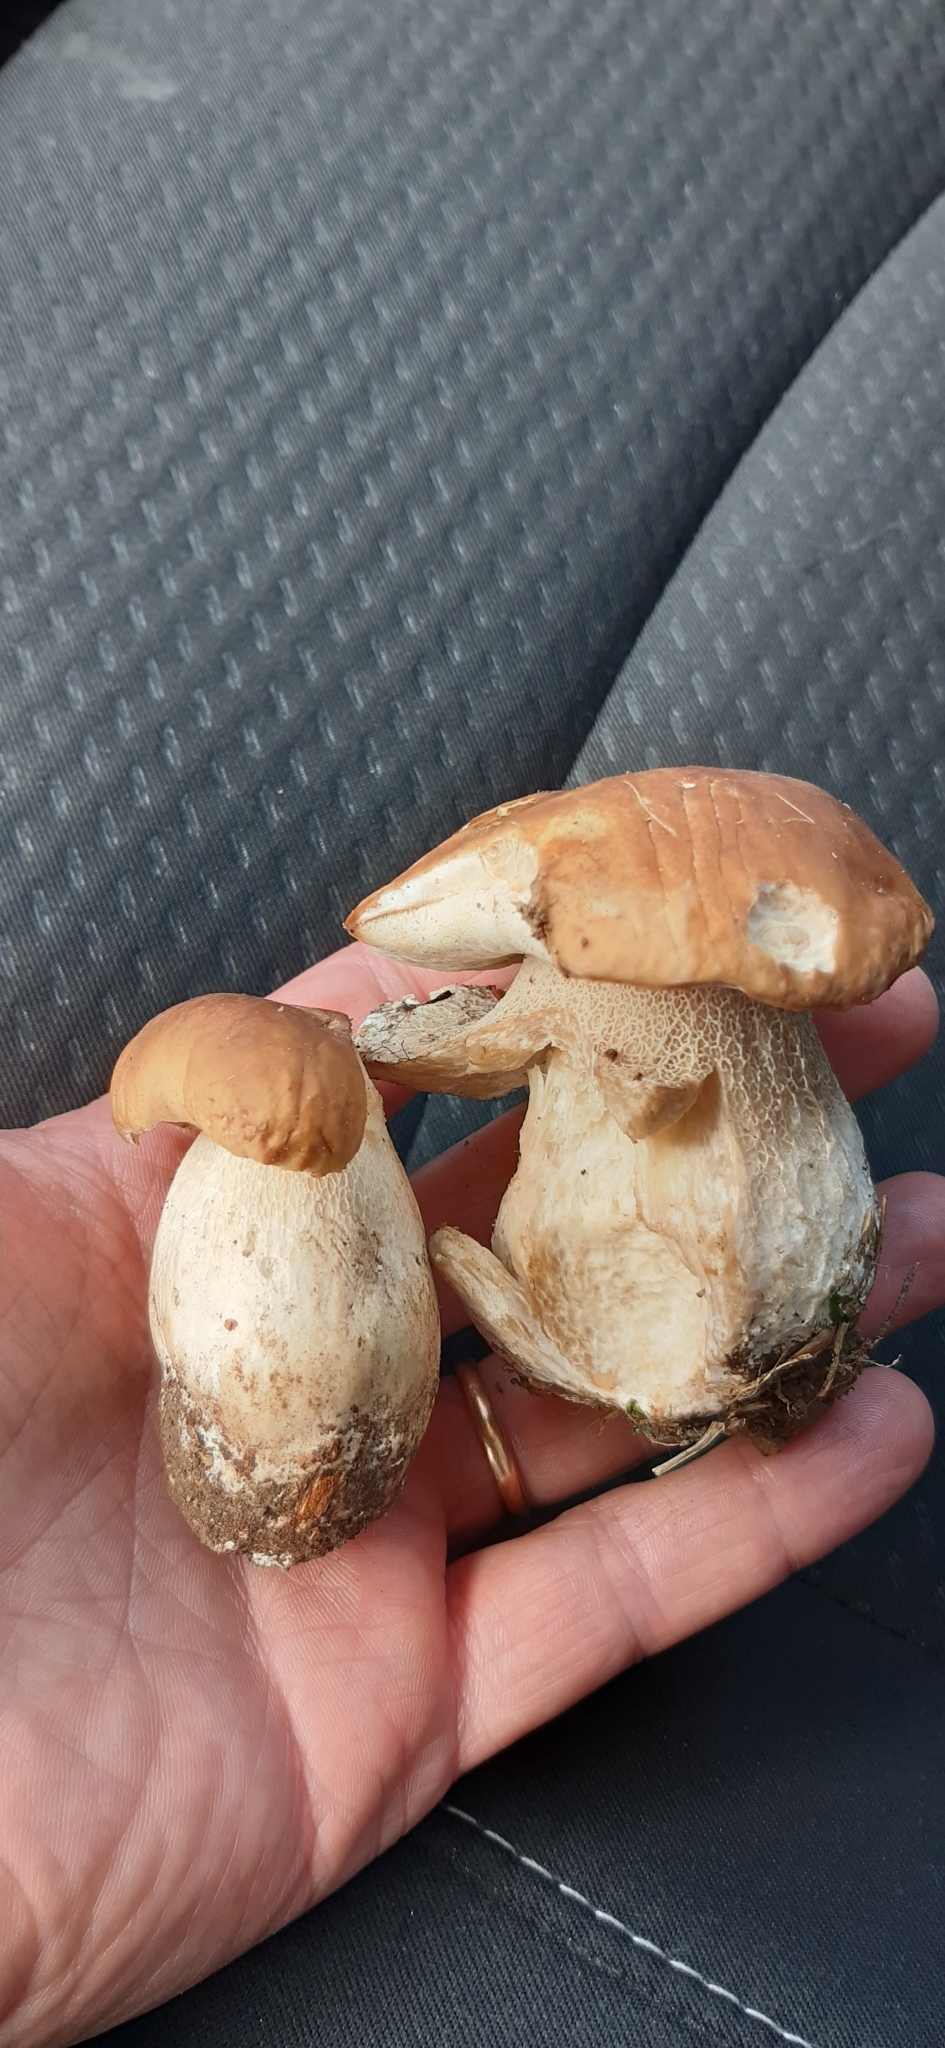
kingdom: Fungi
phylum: Basidiomycota
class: Agaricomycetes
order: Boletales
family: Boletaceae
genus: Boletus
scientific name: Boletus edulis
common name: Cep
